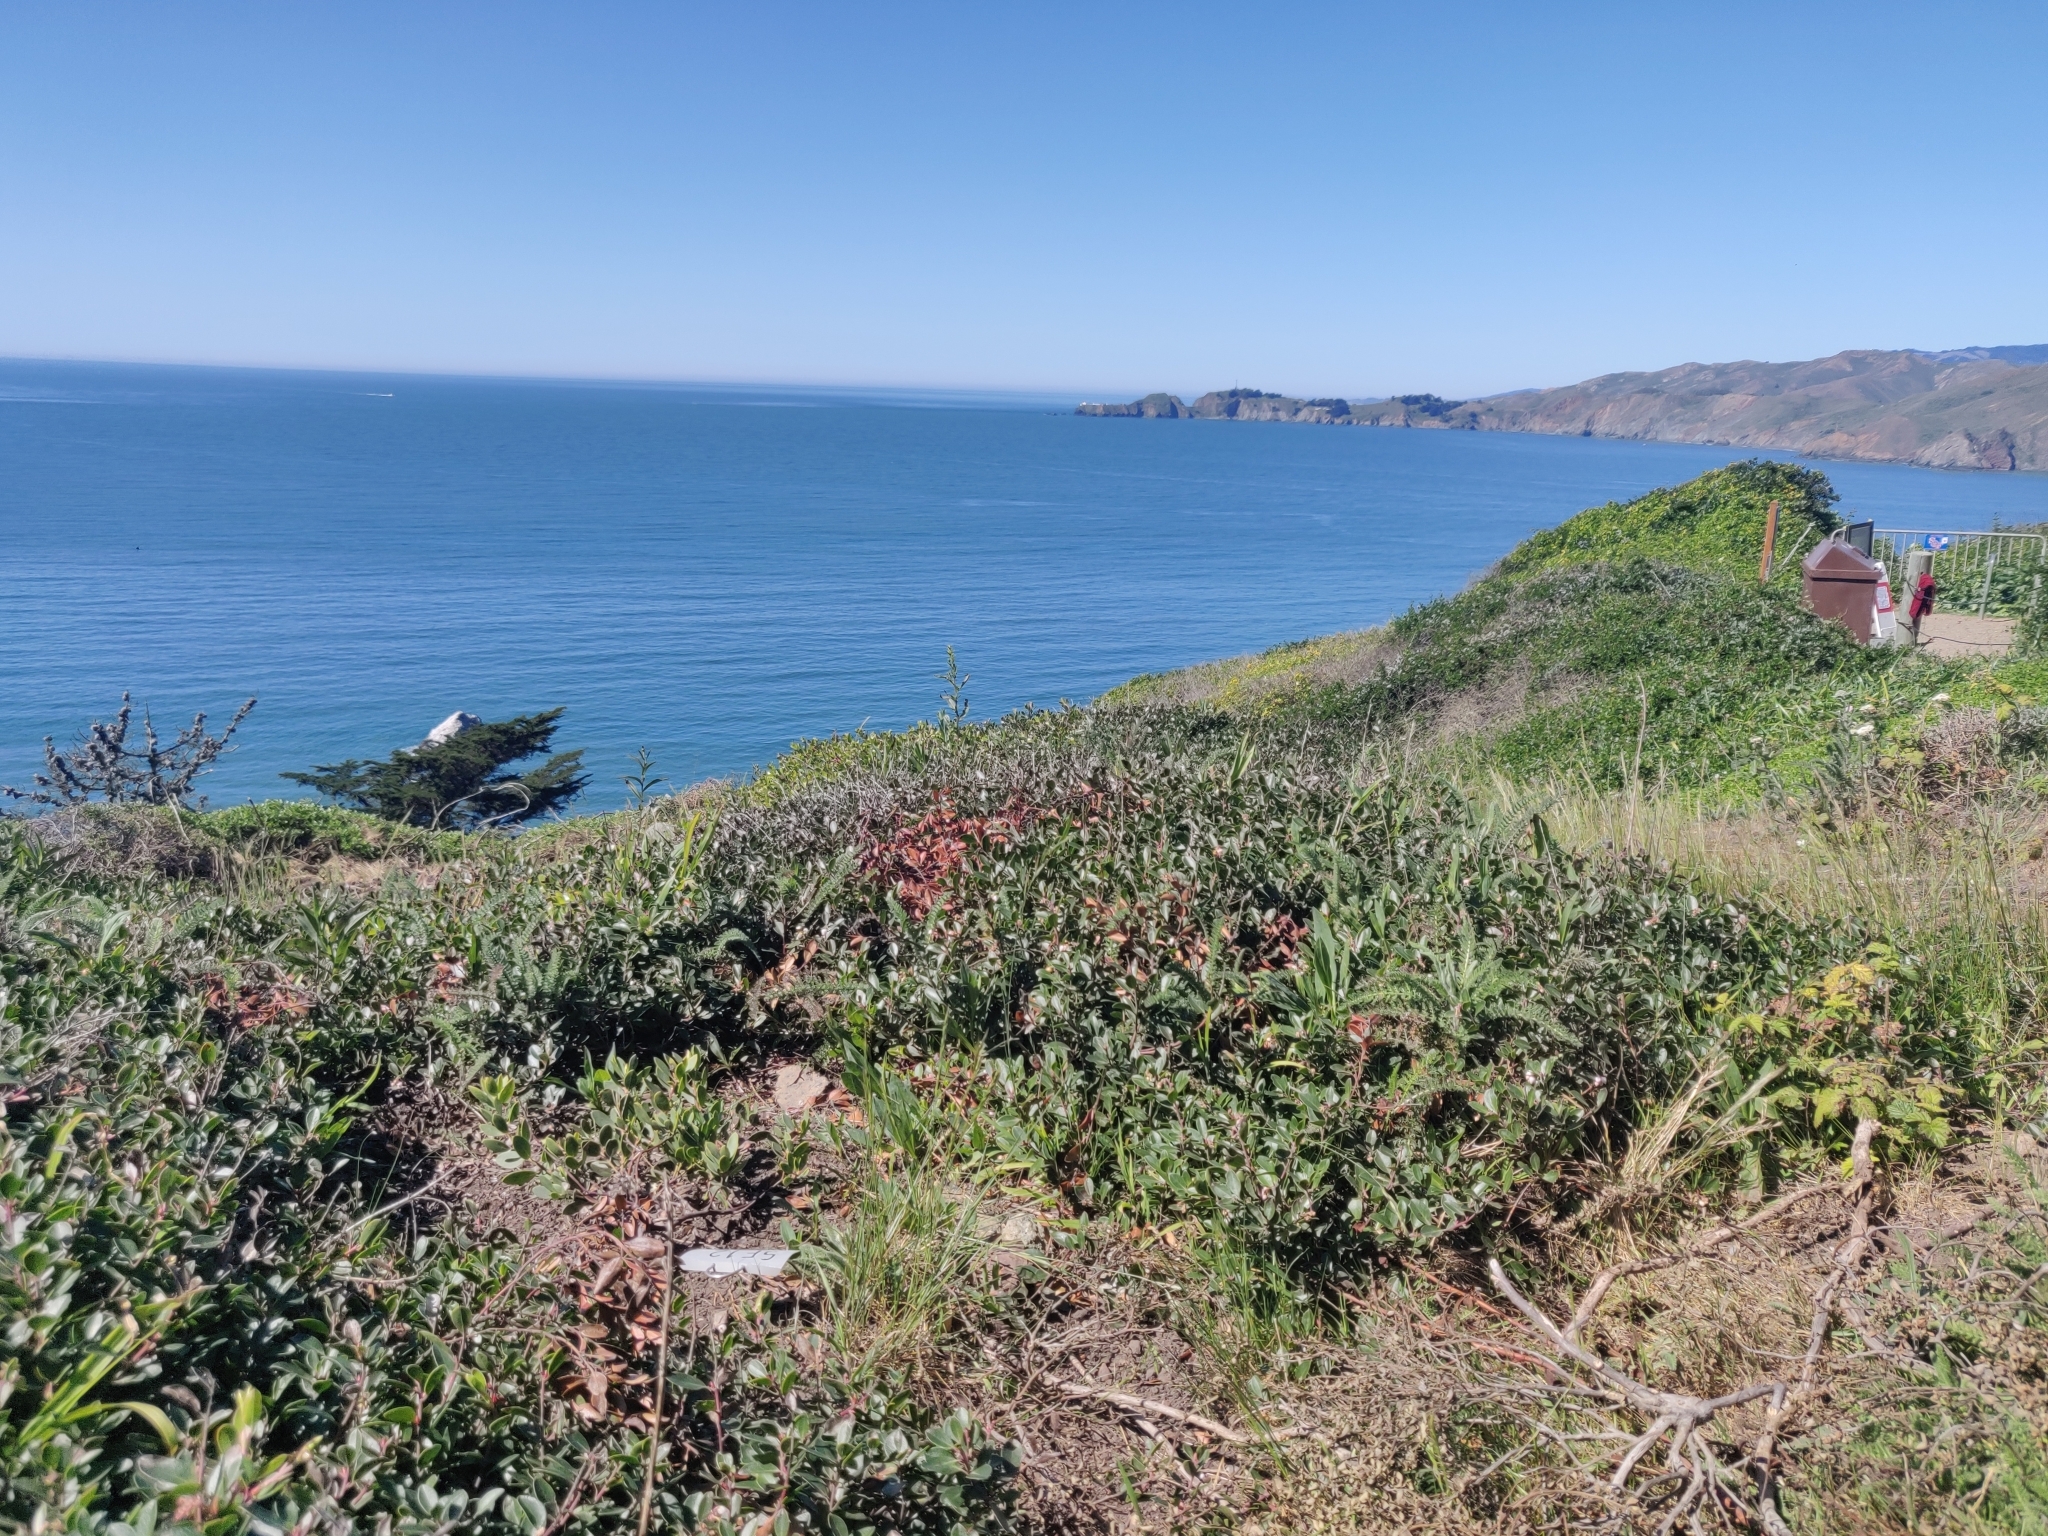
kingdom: Plantae
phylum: Tracheophyta
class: Magnoliopsida
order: Ericales
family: Ericaceae
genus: Arctostaphylos
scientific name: Arctostaphylos franciscana
